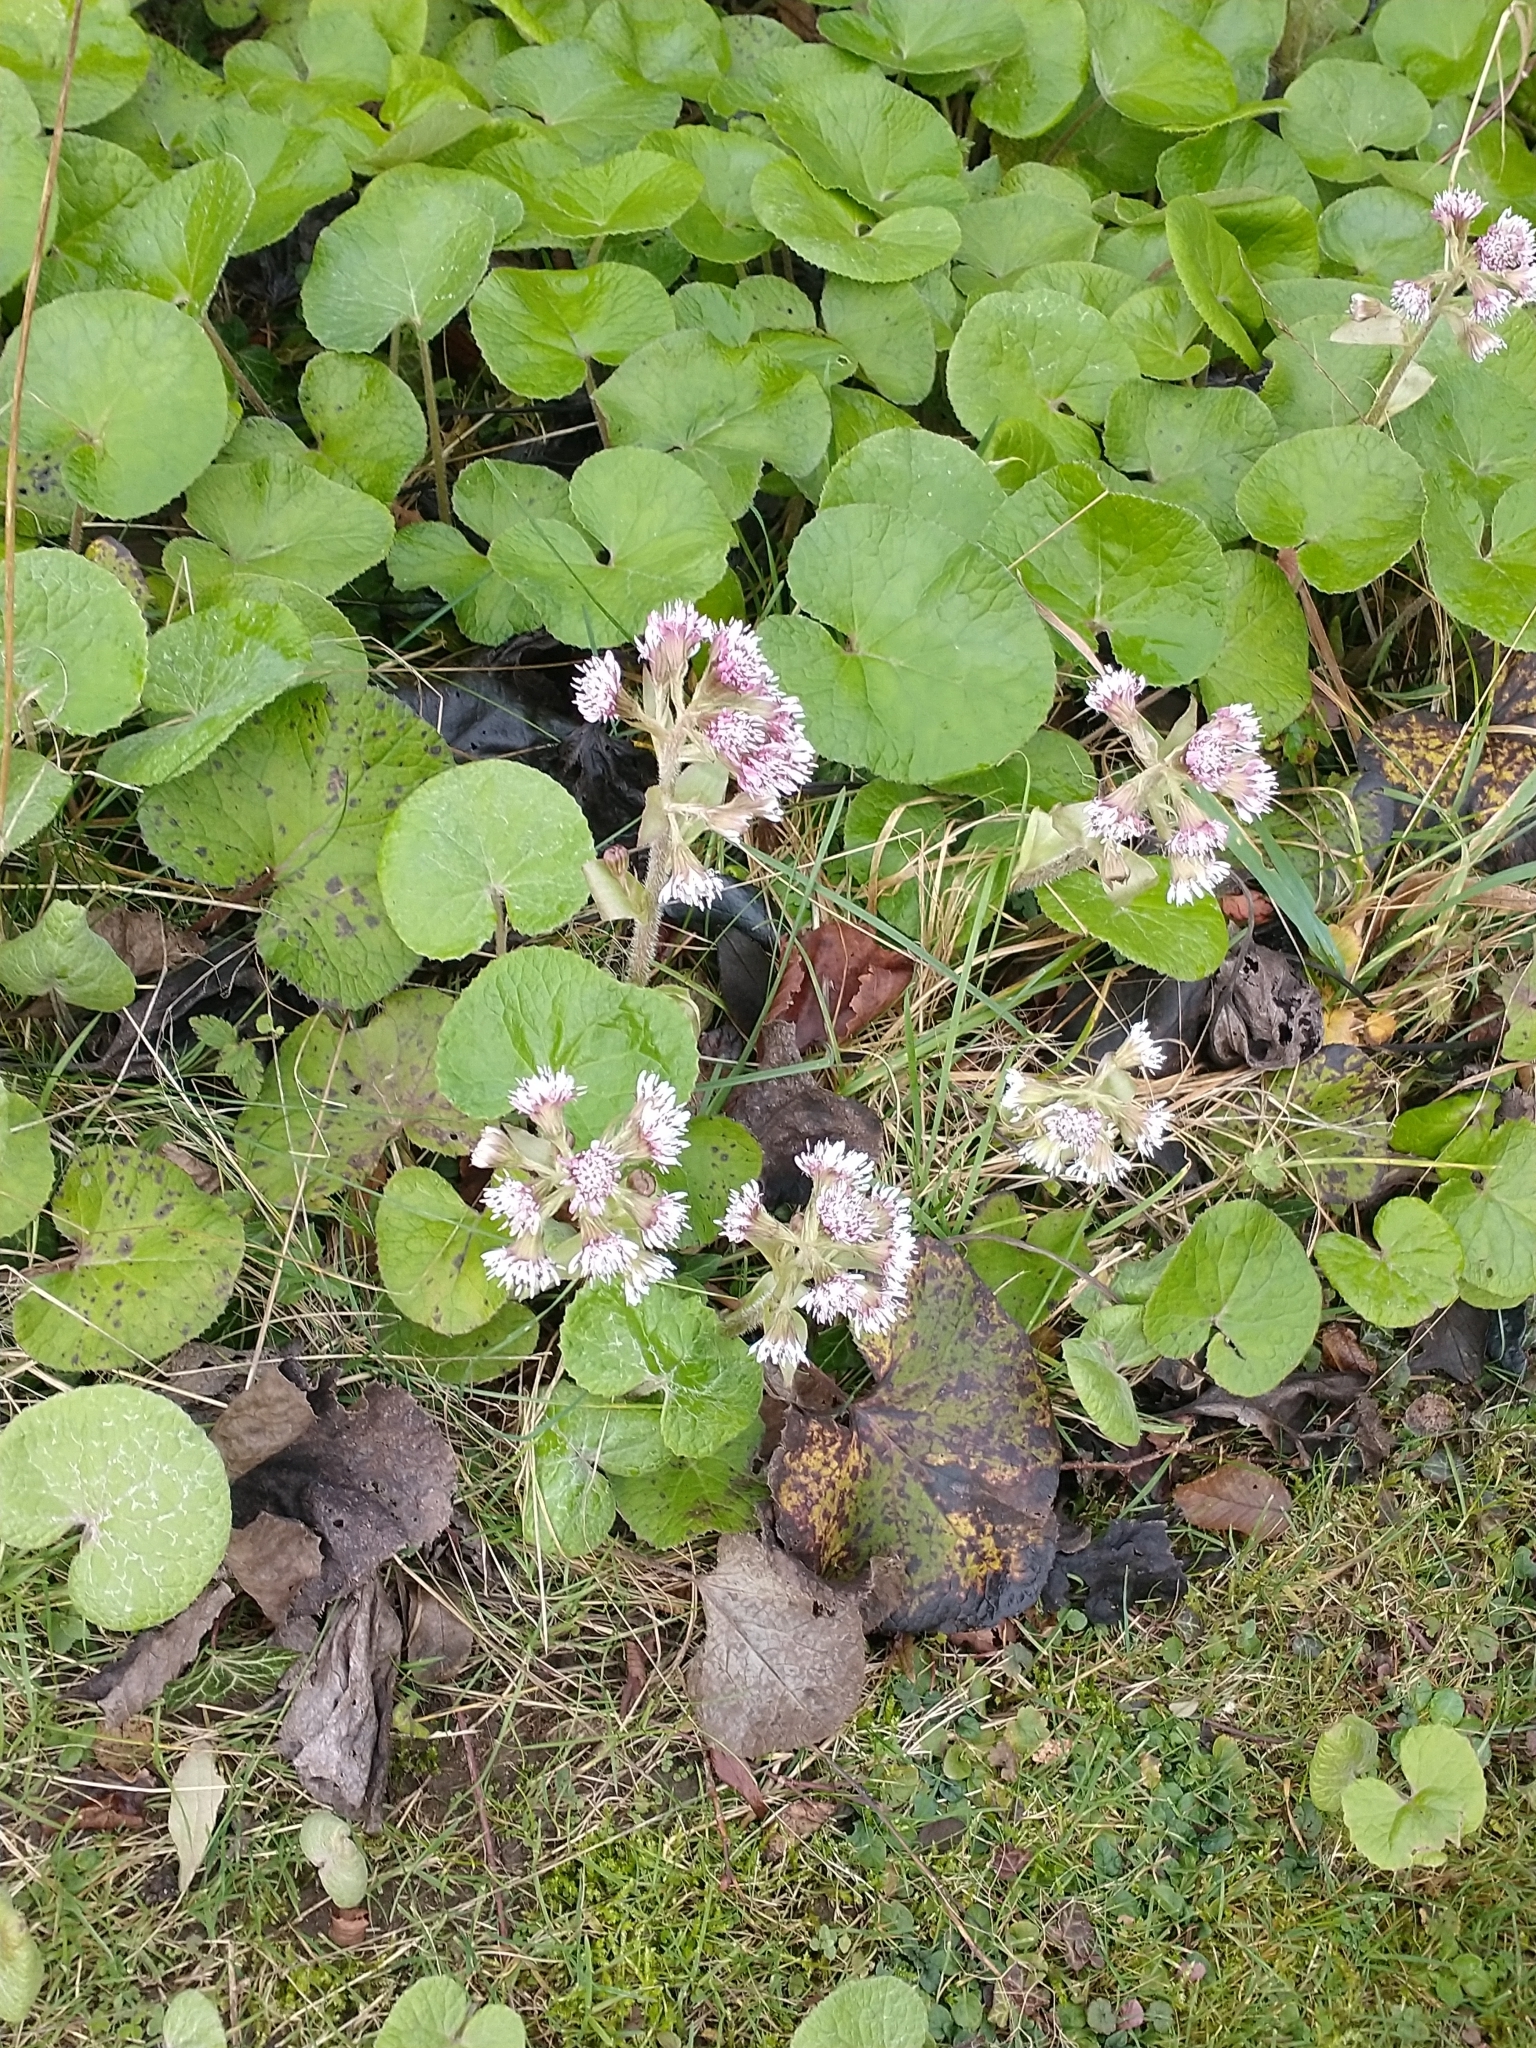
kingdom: Plantae
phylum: Tracheophyta
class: Magnoliopsida
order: Asterales
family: Asteraceae
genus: Petasites
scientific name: Petasites pyrenaicus
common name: Winter heliotrope
